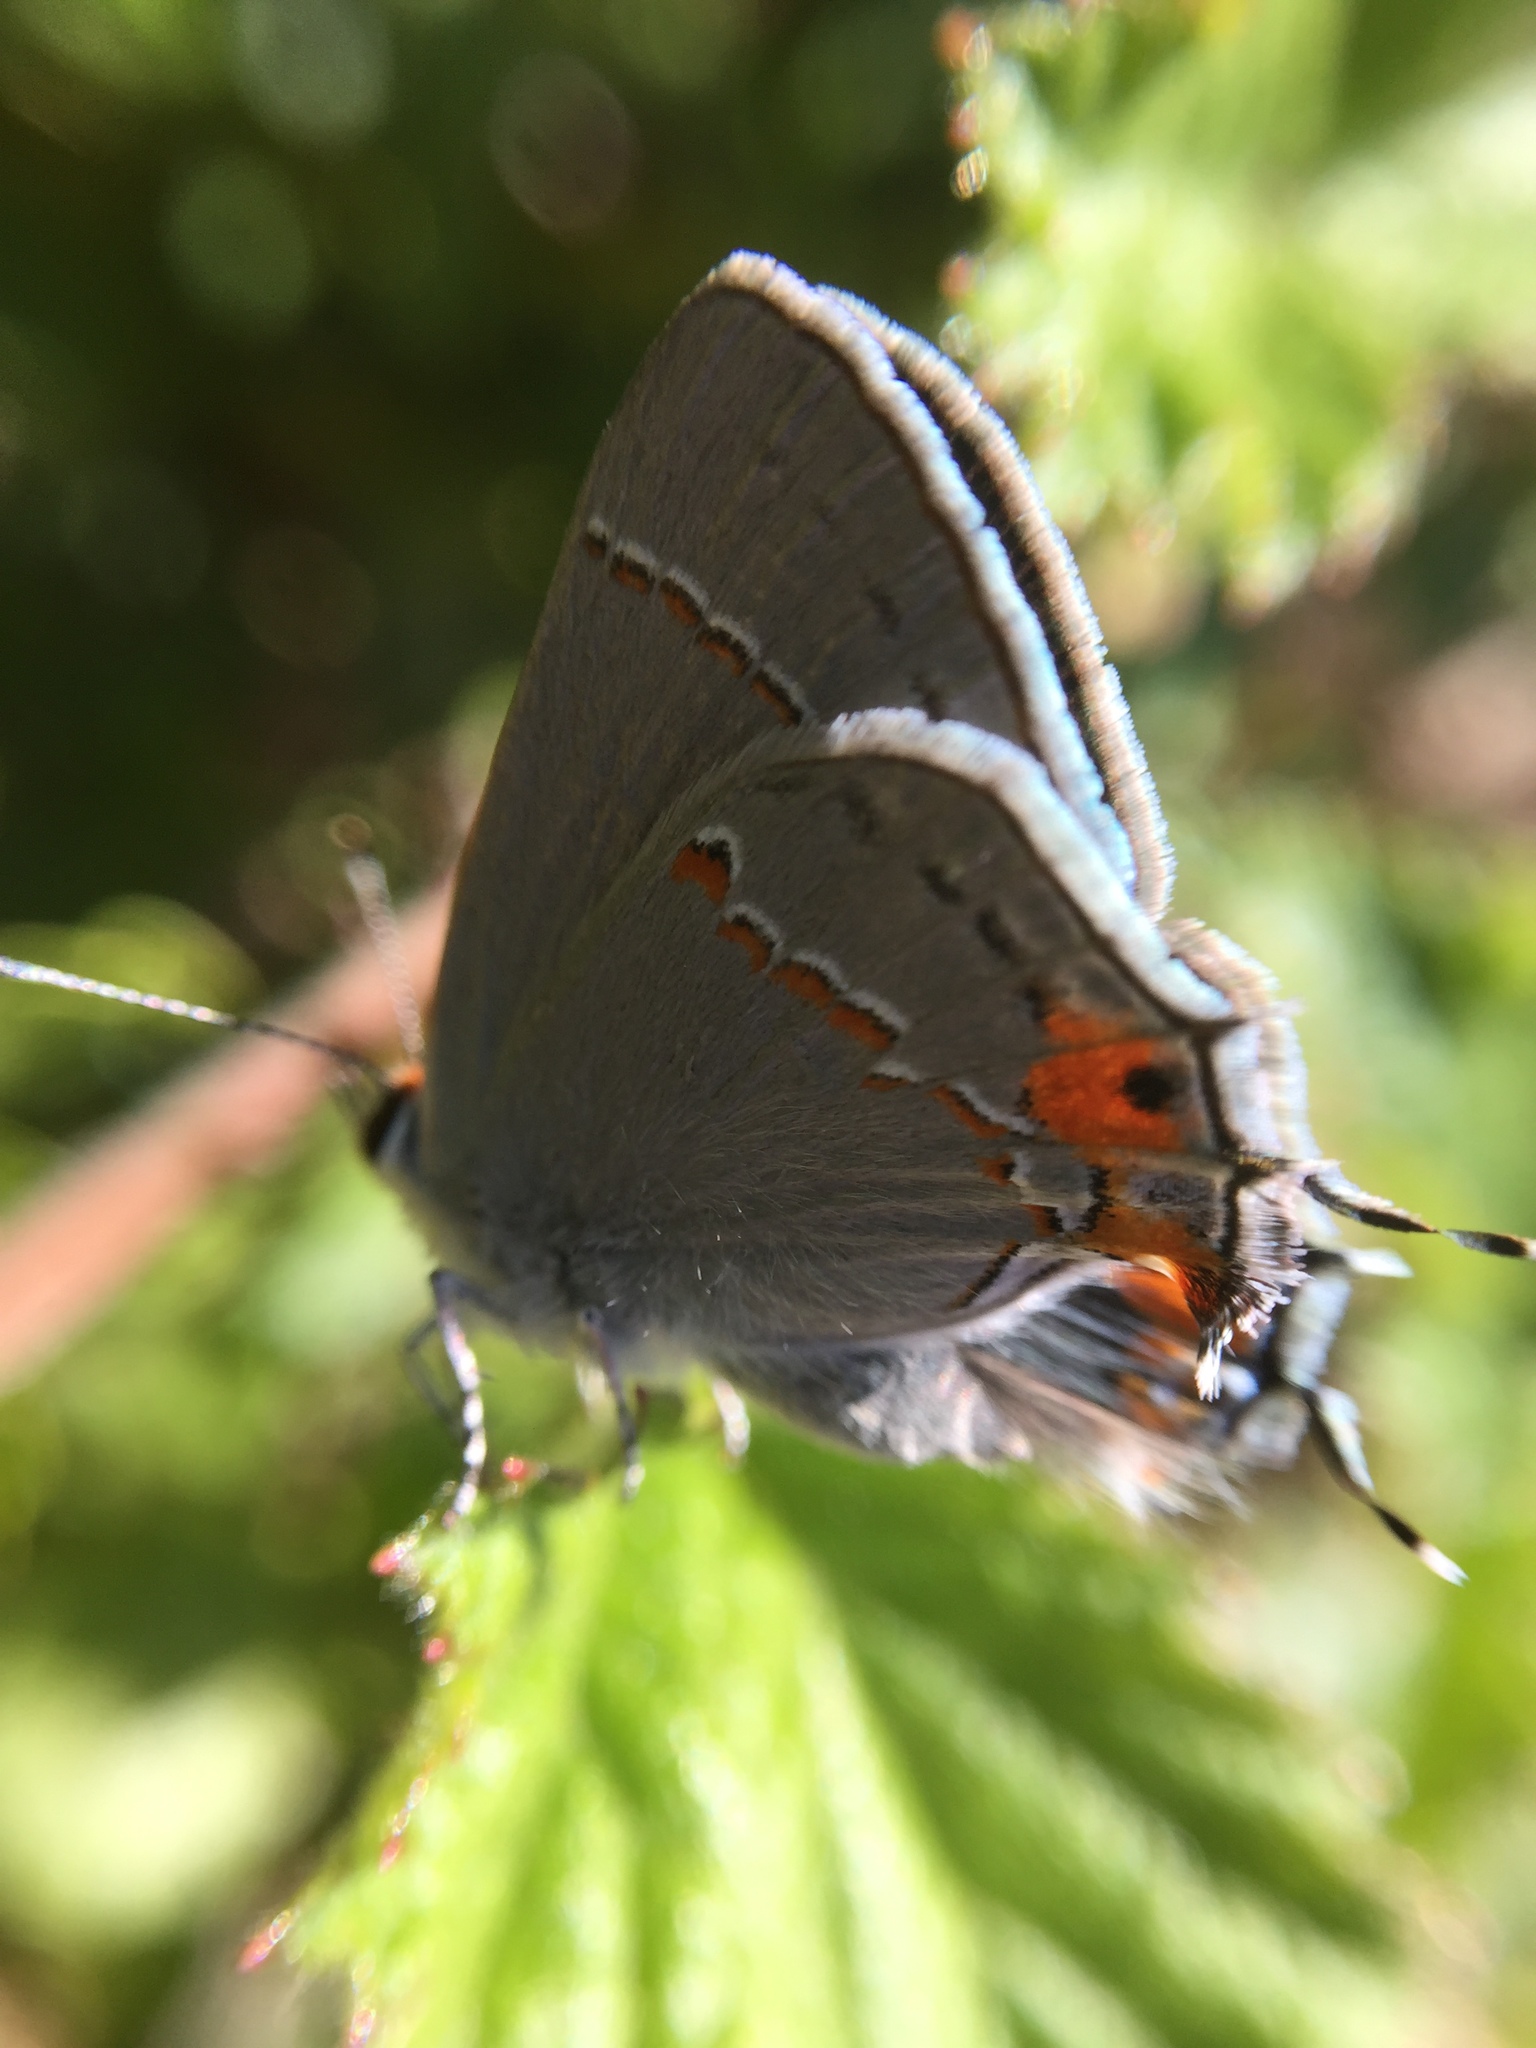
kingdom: Animalia
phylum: Arthropoda
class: Insecta
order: Lepidoptera
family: Lycaenidae
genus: Strymon
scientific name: Strymon melinus
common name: Gray hairstreak
